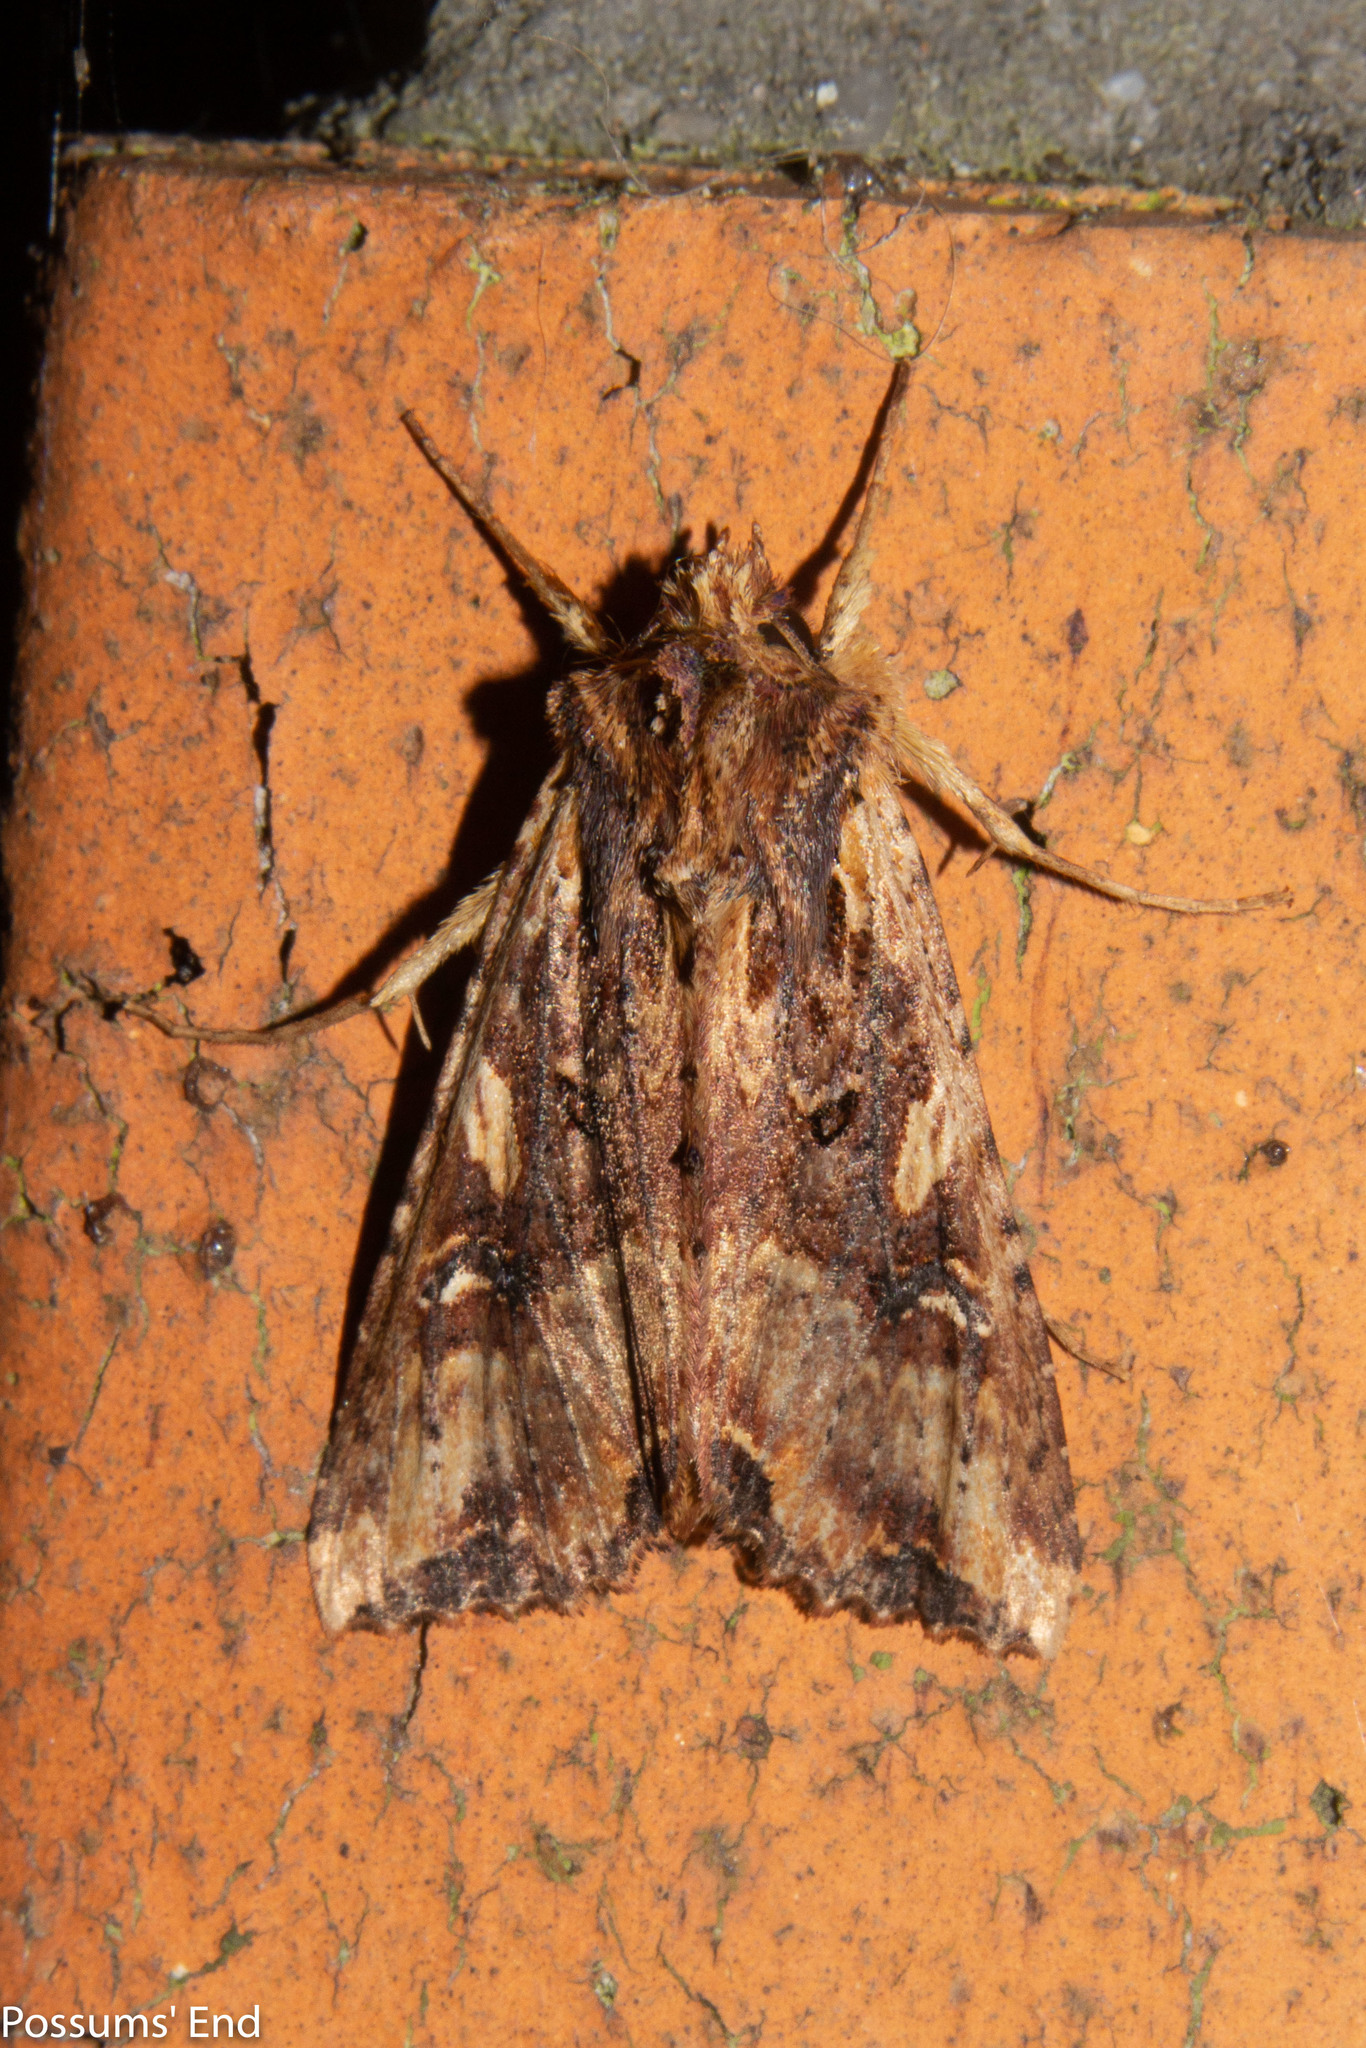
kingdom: Animalia
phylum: Arthropoda
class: Insecta
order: Lepidoptera
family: Noctuidae
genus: Meterana
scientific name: Meterana stipata
